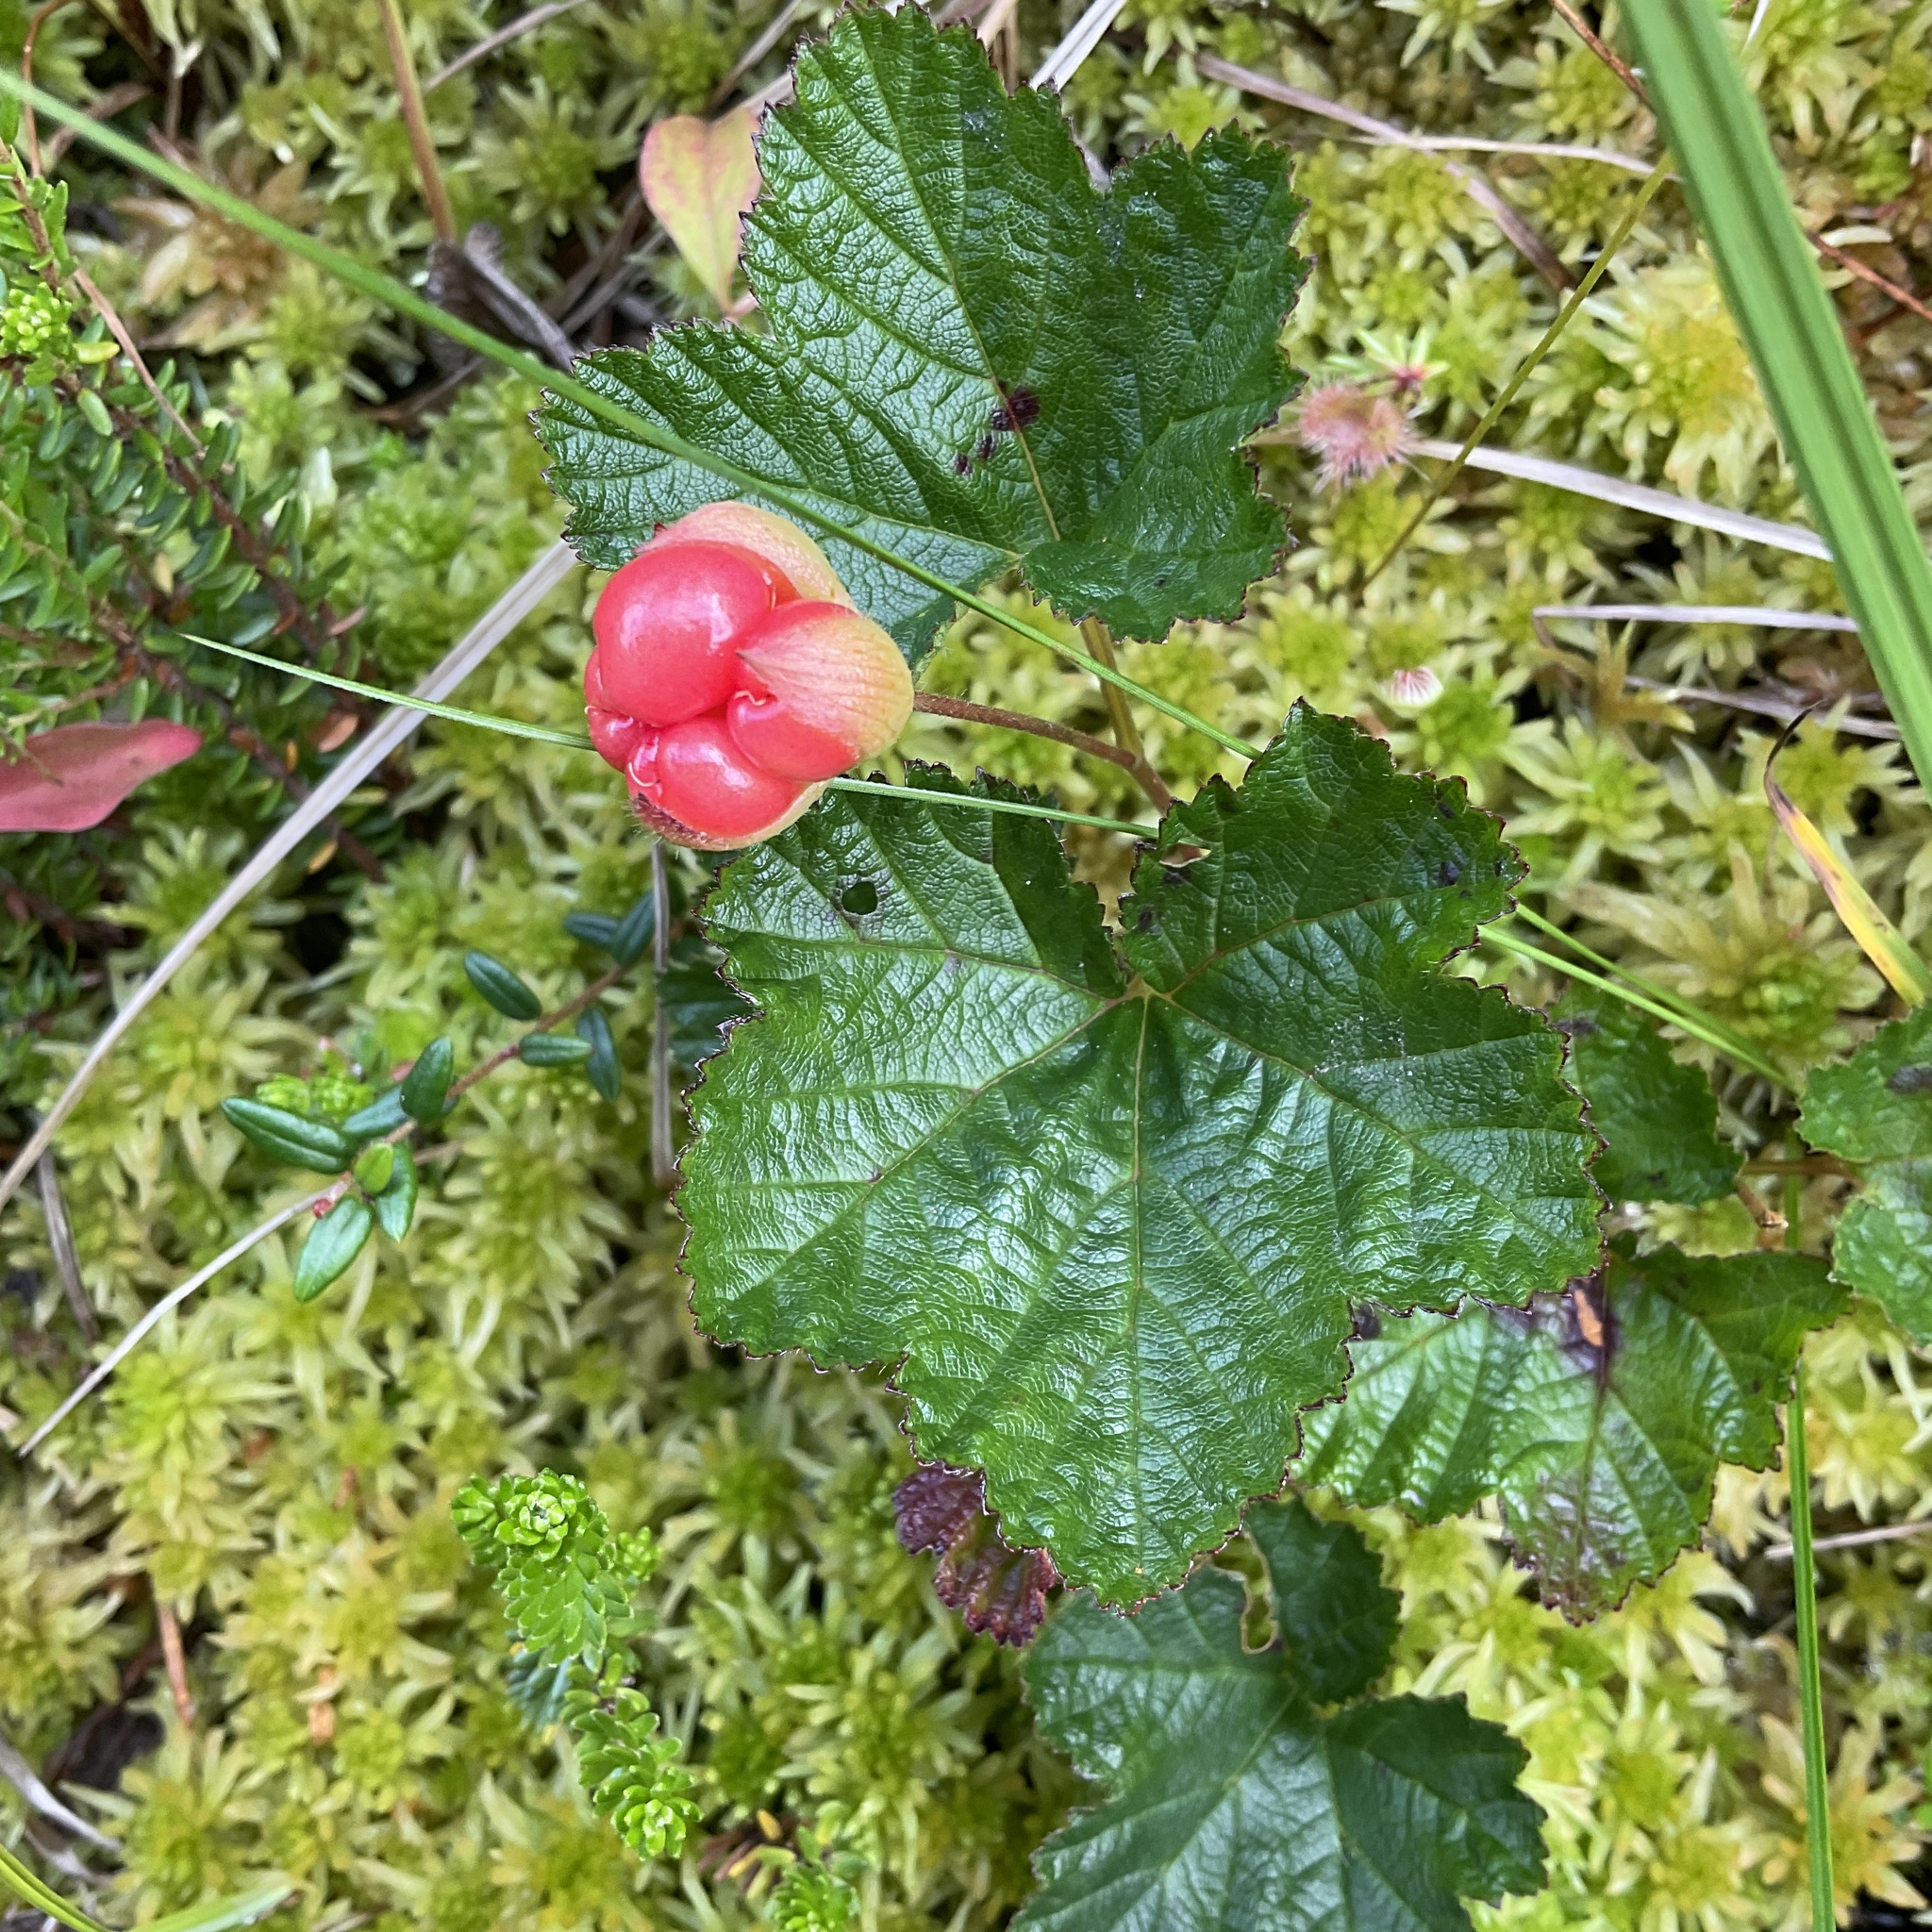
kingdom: Plantae
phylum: Tracheophyta
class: Magnoliopsida
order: Rosales
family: Rosaceae
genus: Rubus
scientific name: Rubus chamaemorus
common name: Cloudberry
